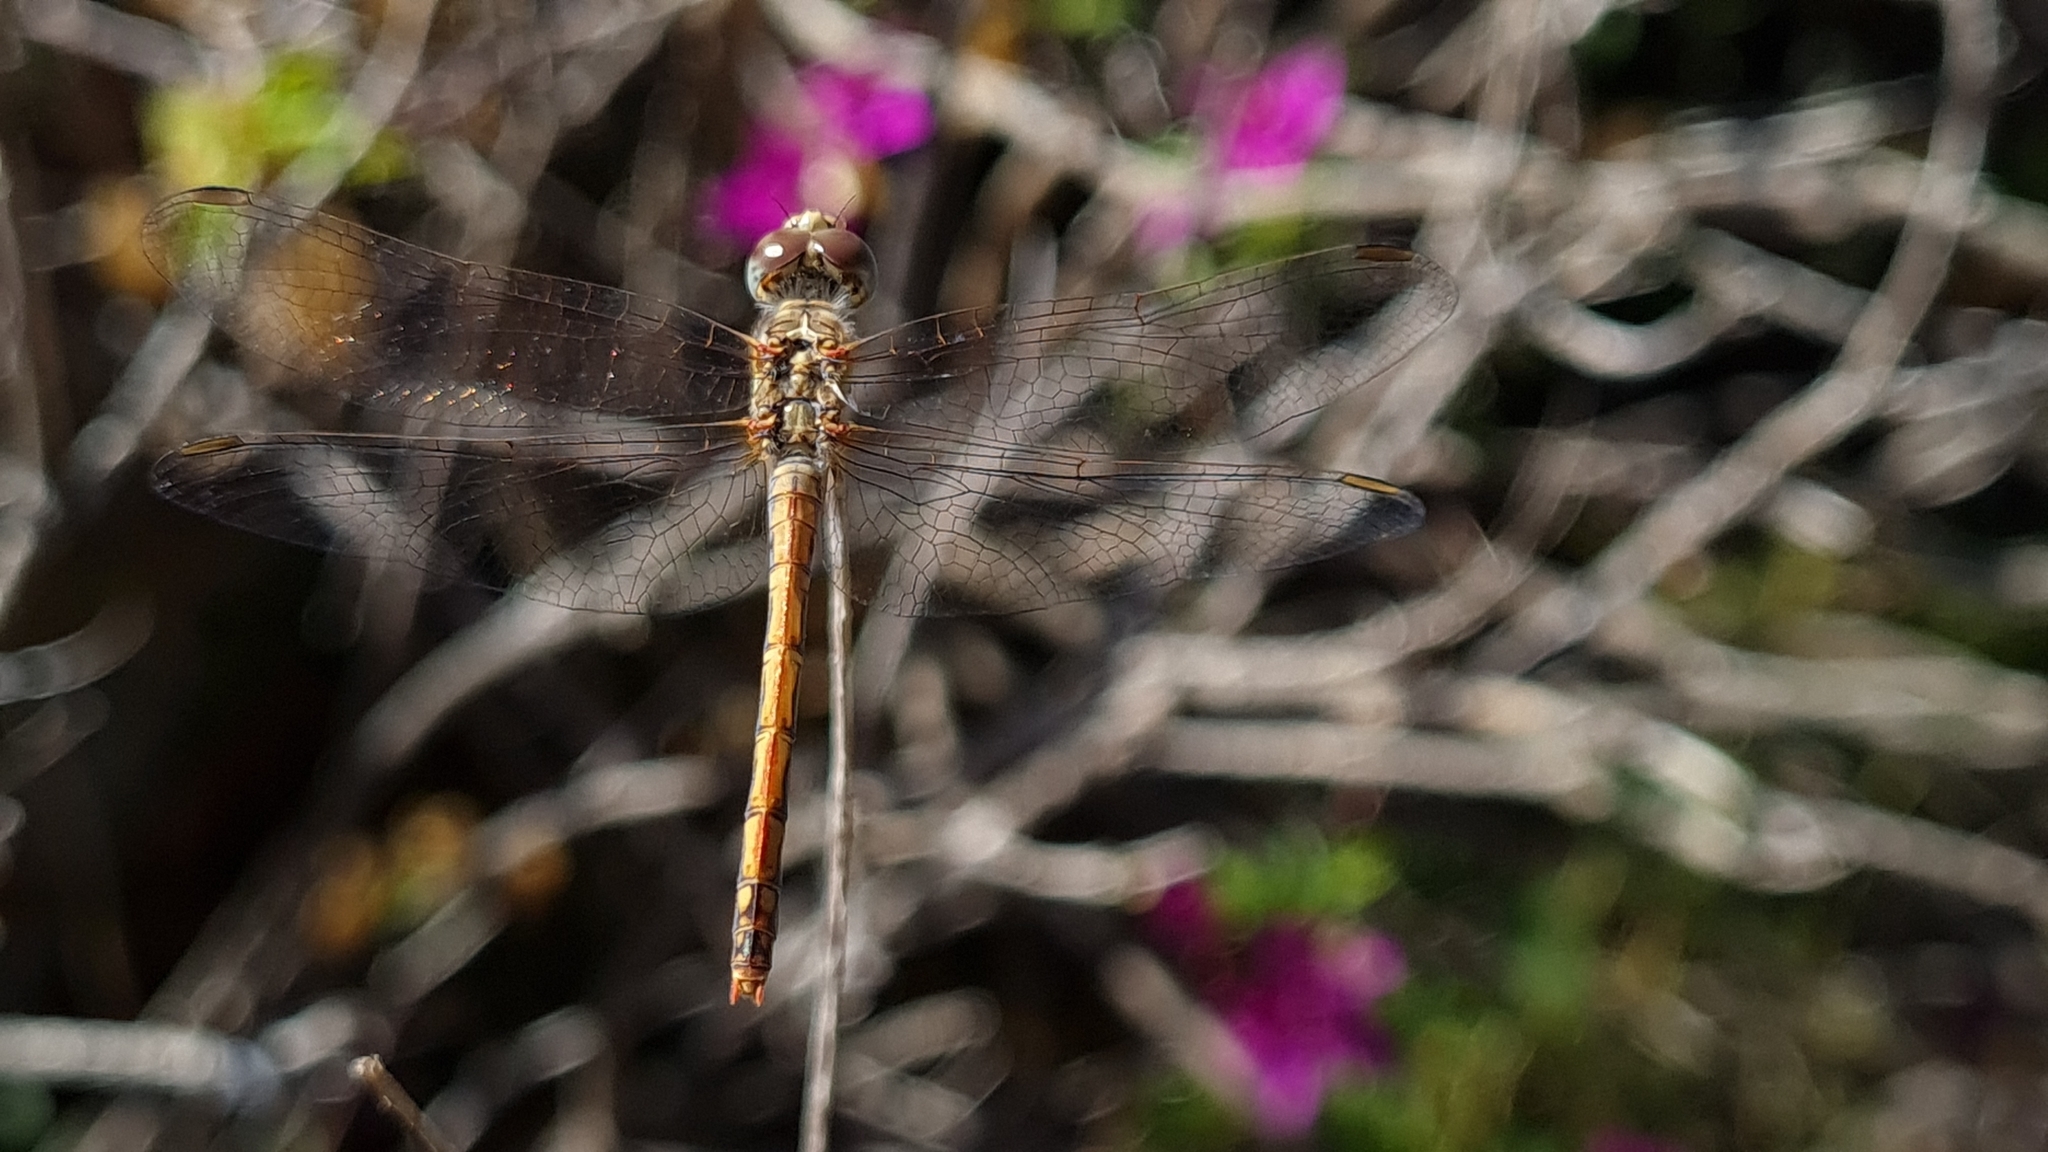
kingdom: Animalia
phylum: Arthropoda
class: Insecta
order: Odonata
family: Libellulidae
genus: Sympetrum
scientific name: Sympetrum fonscolombii
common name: Red-veined darter
